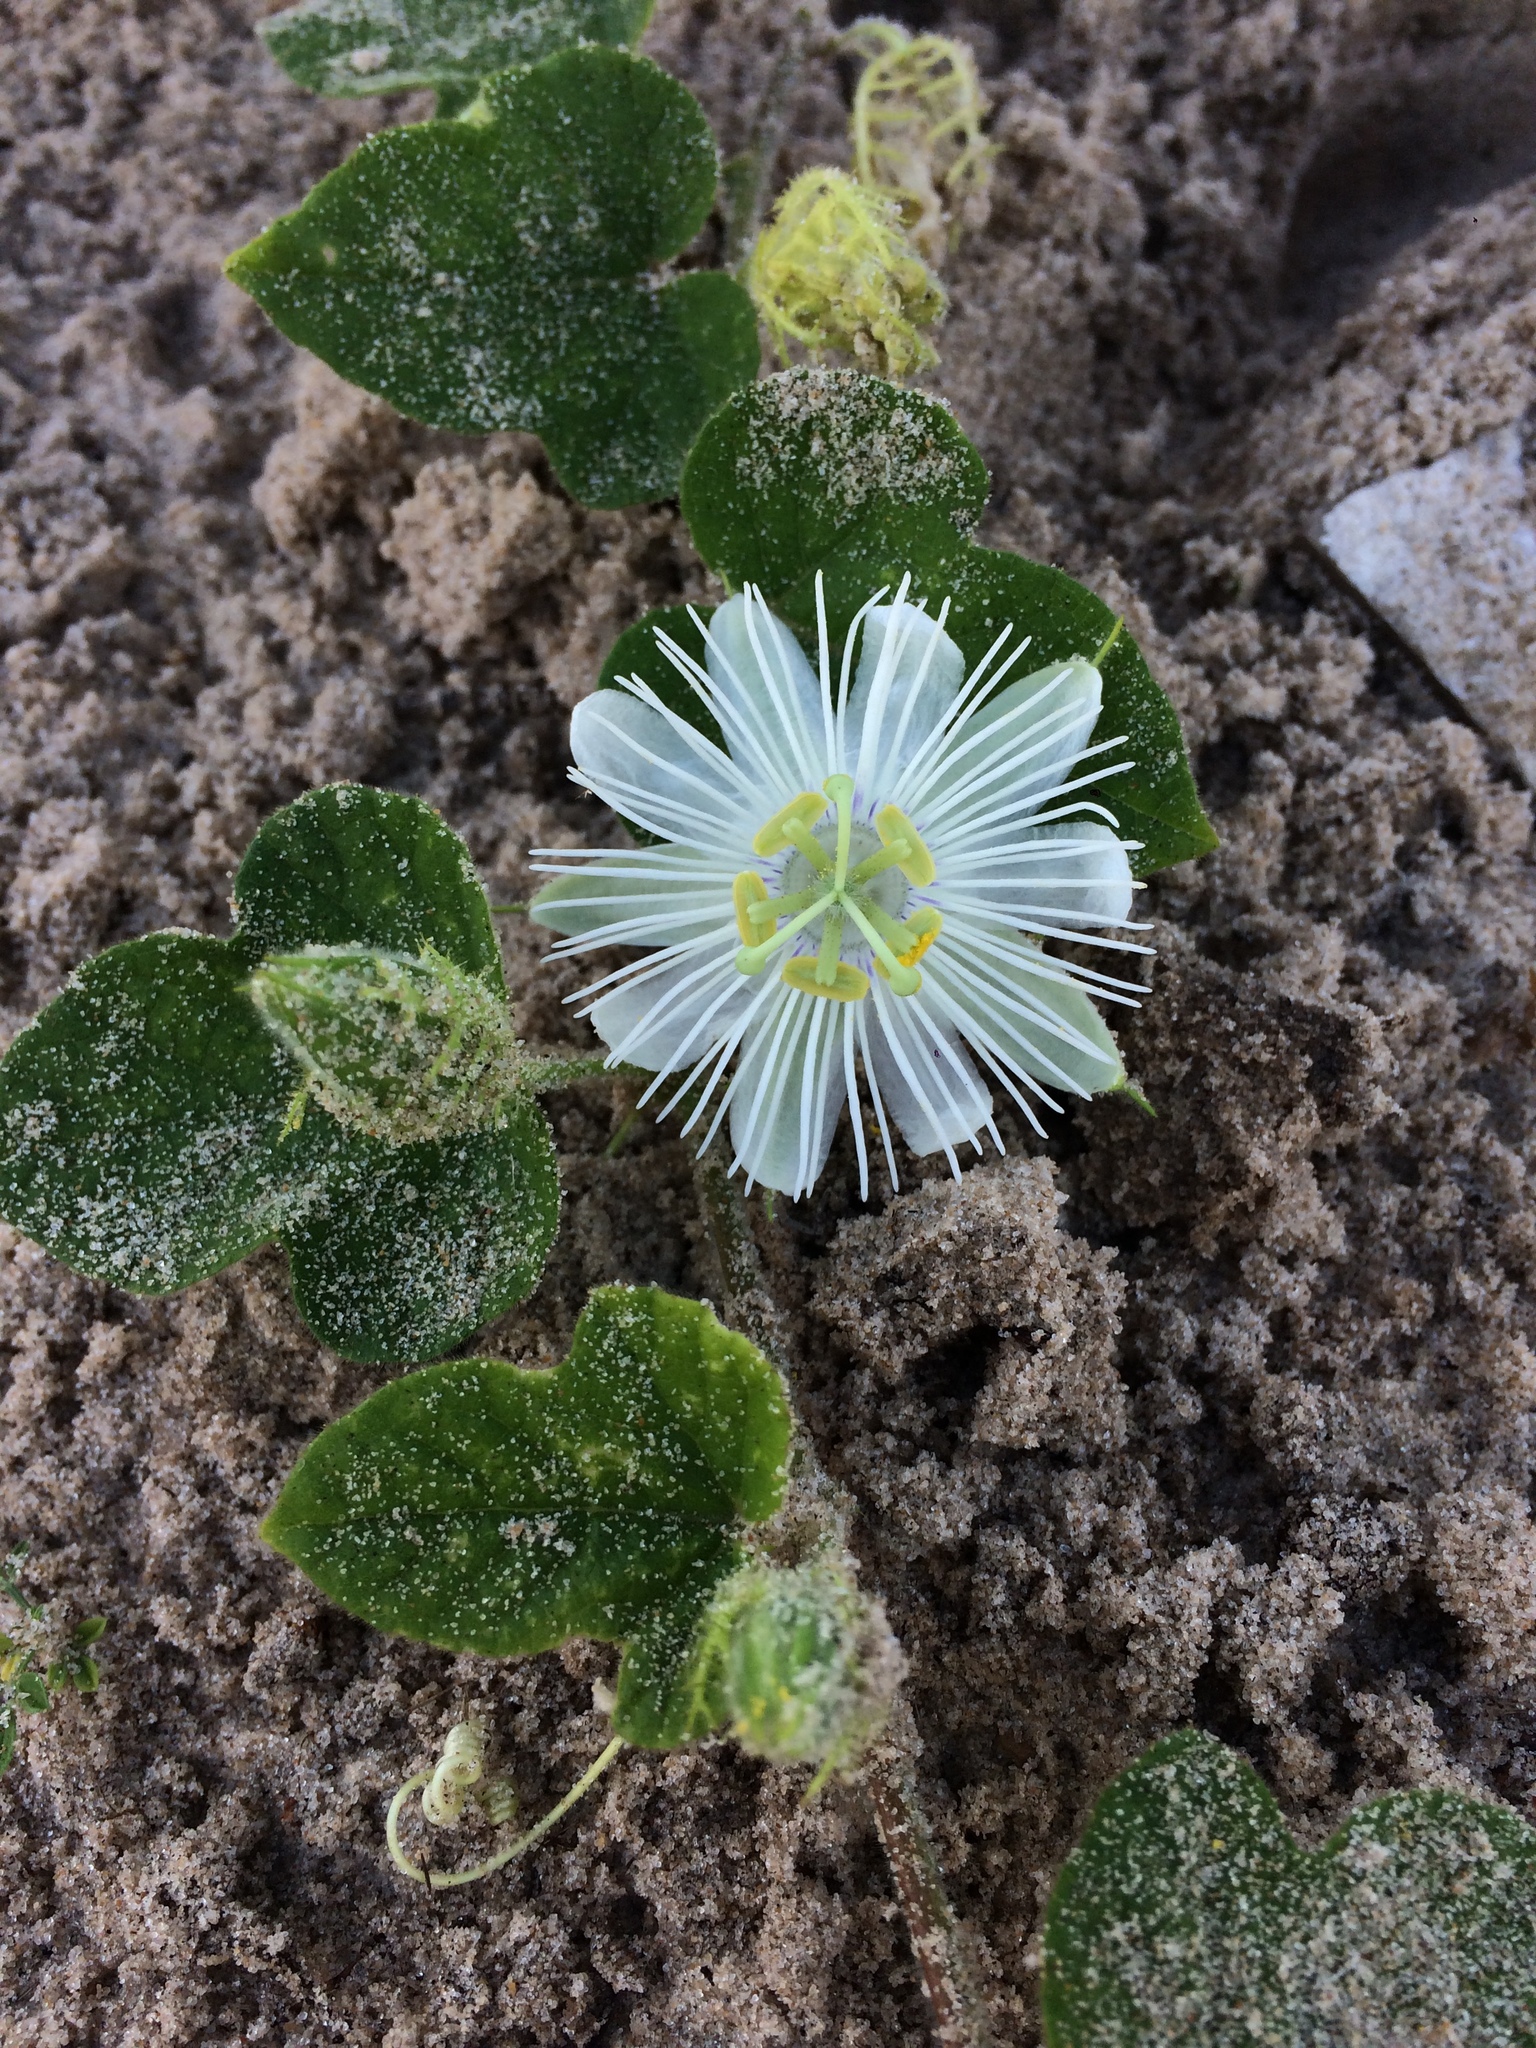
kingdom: Plantae
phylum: Tracheophyta
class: Magnoliopsida
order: Malpighiales
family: Passifloraceae
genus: Passiflora
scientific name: Passiflora foetida
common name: Fetid passionflower
